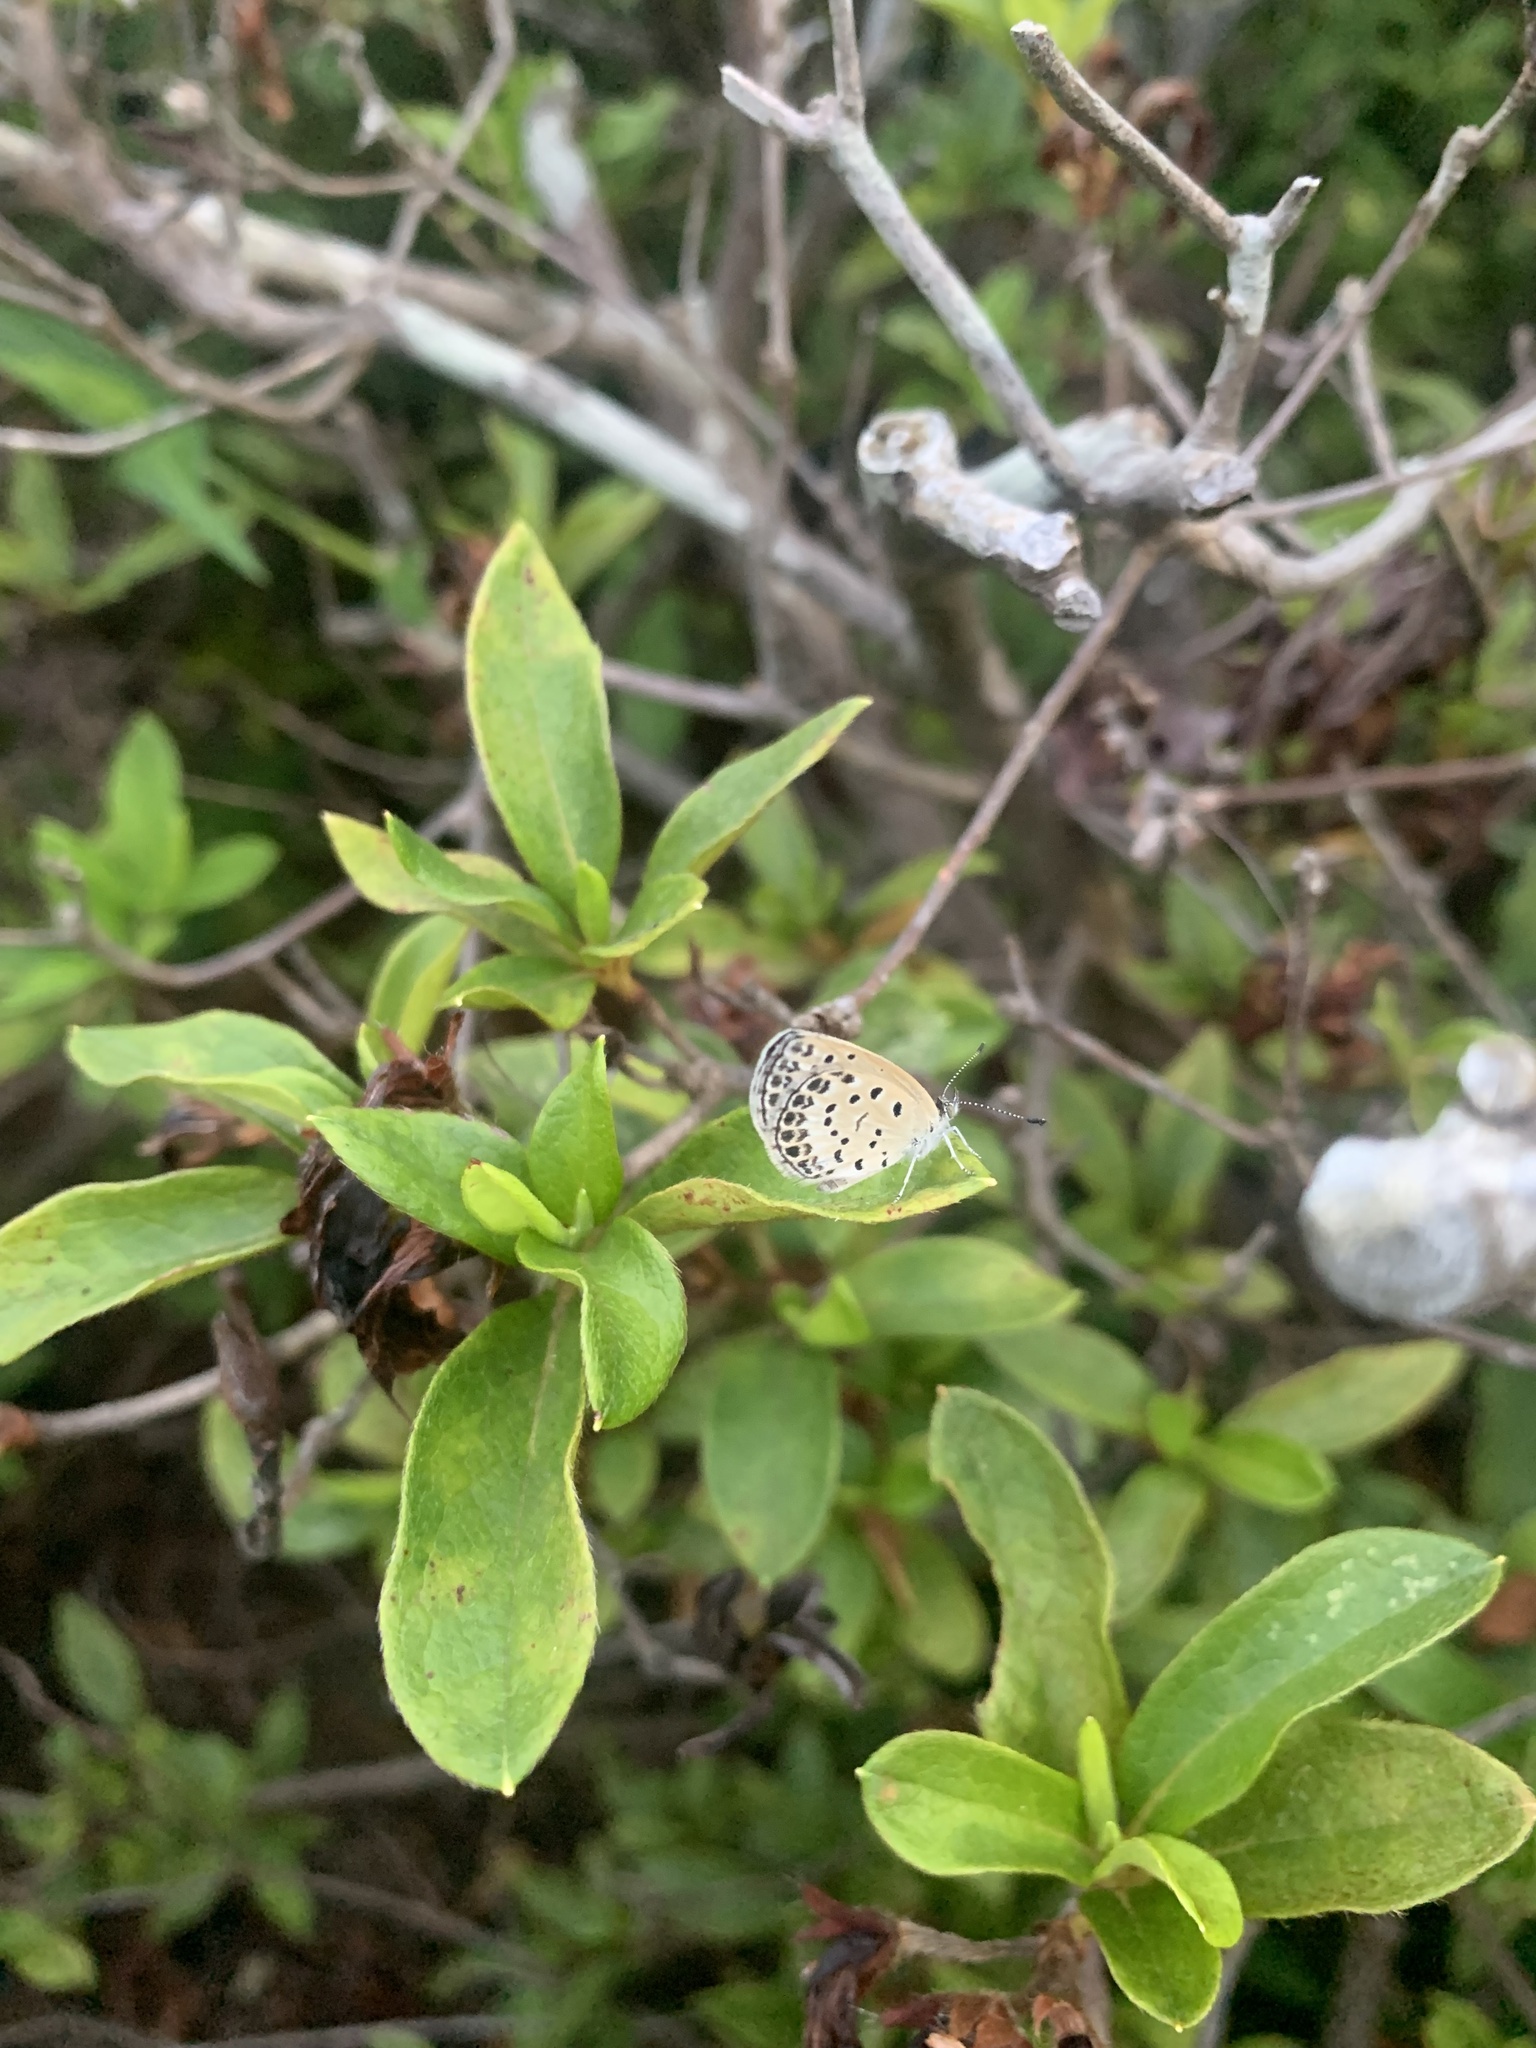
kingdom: Animalia
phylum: Arthropoda
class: Insecta
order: Lepidoptera
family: Lycaenidae
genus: Pseudozizeeria
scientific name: Pseudozizeeria maha
